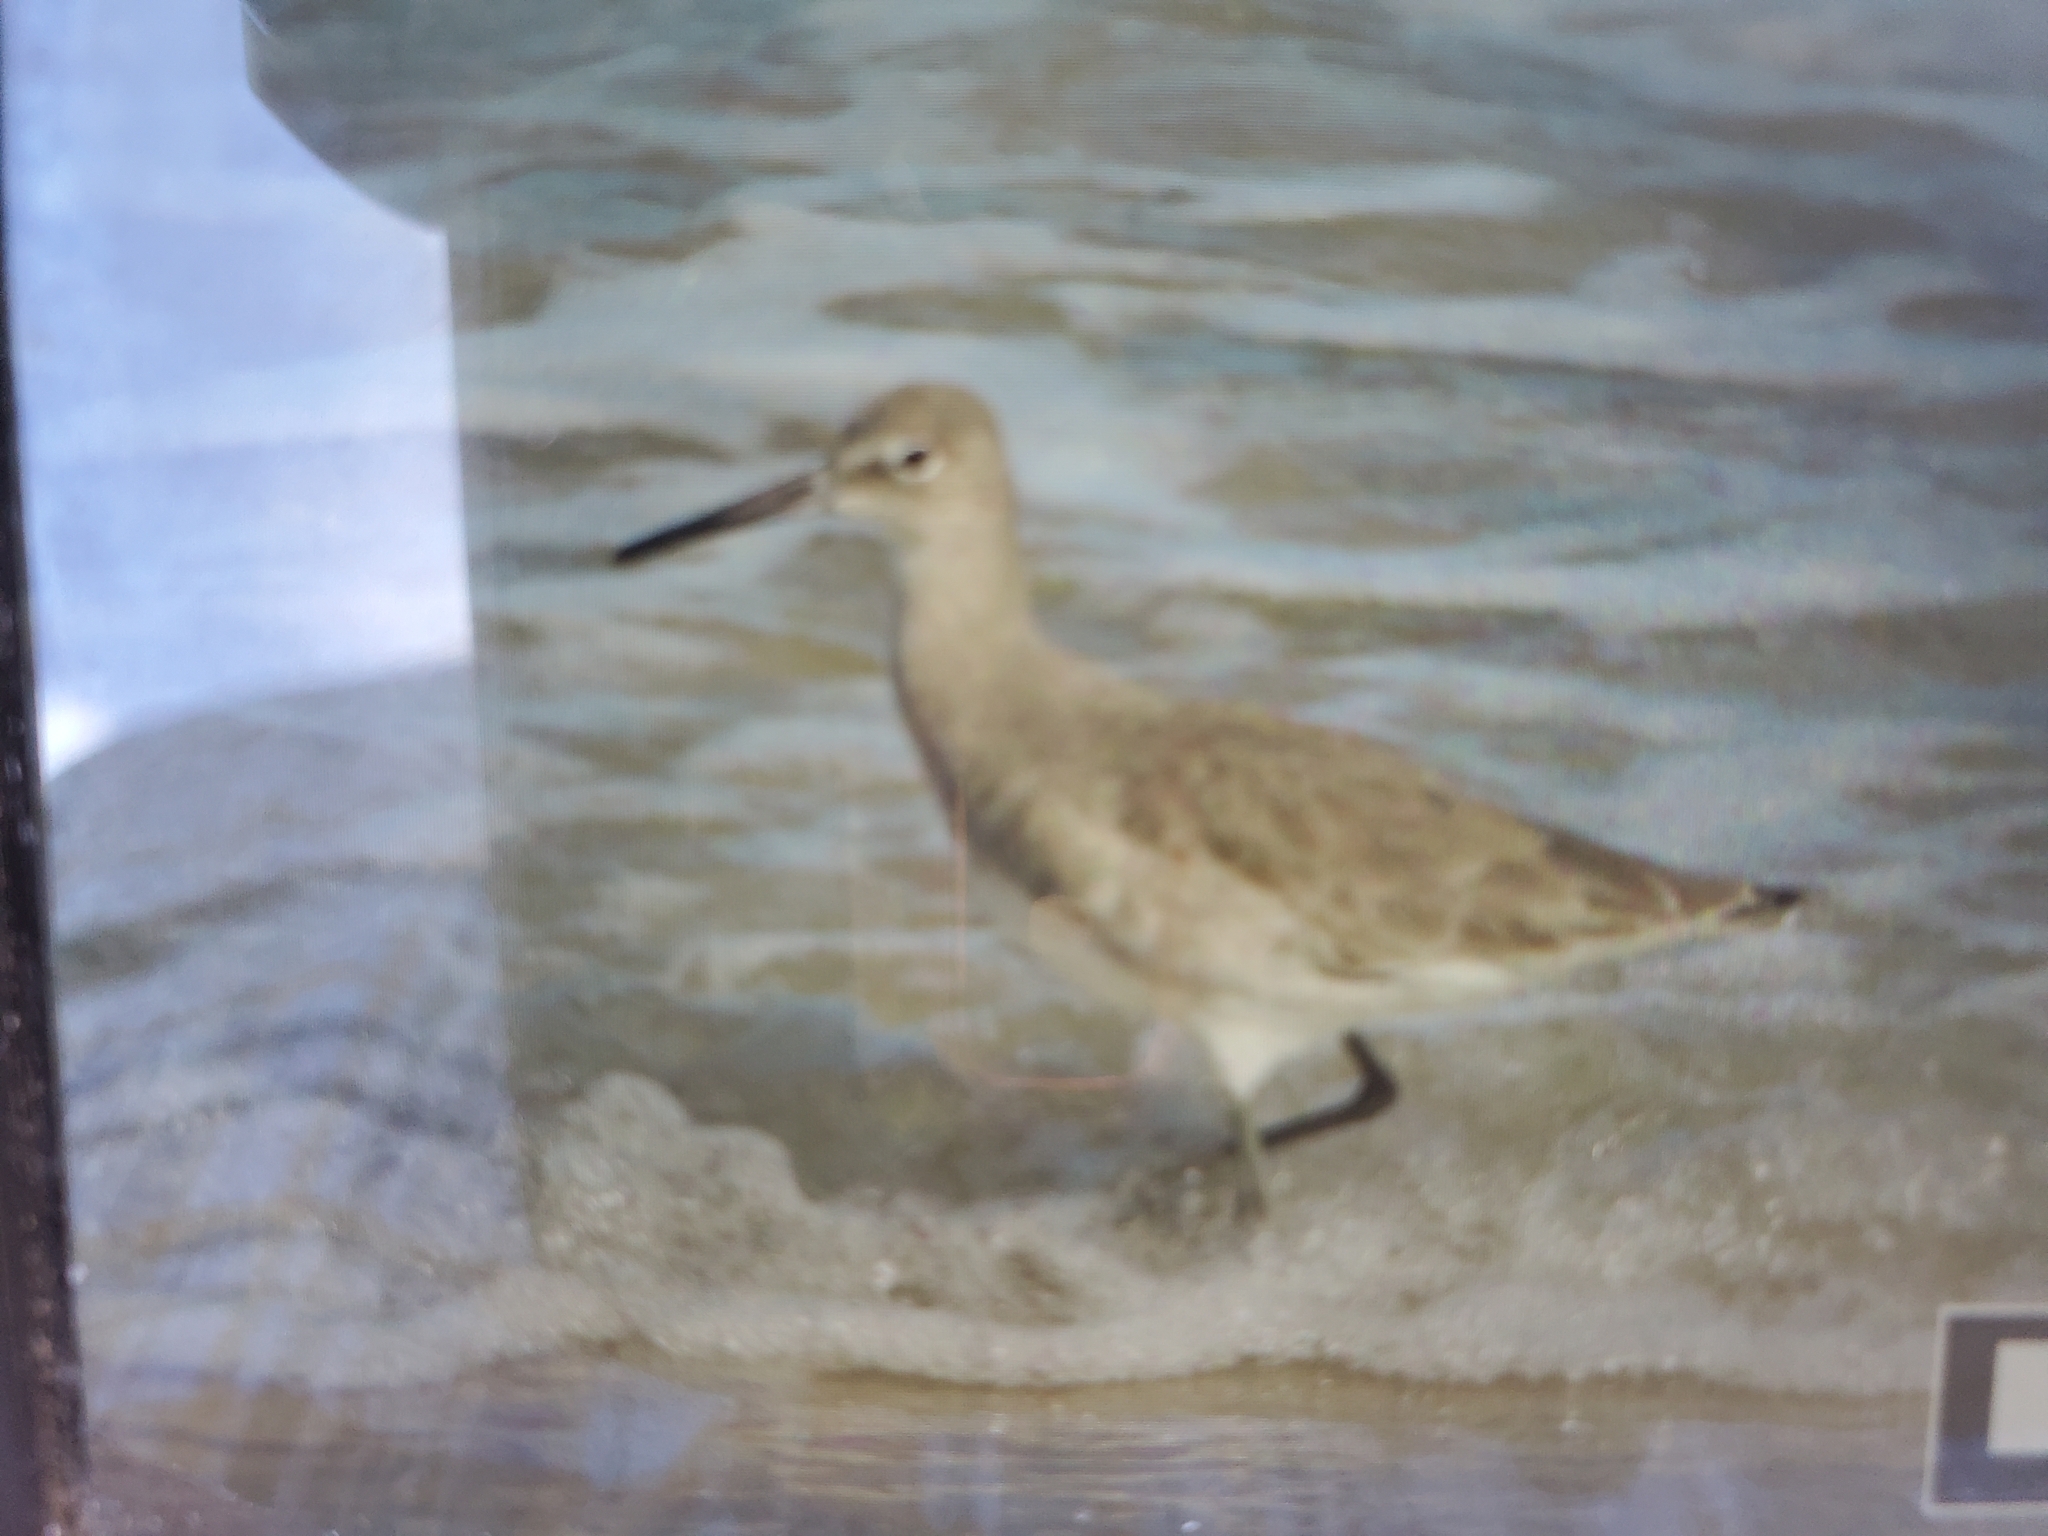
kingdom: Animalia
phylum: Chordata
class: Aves
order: Charadriiformes
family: Scolopacidae
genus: Tringa
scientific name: Tringa semipalmata
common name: Willet
